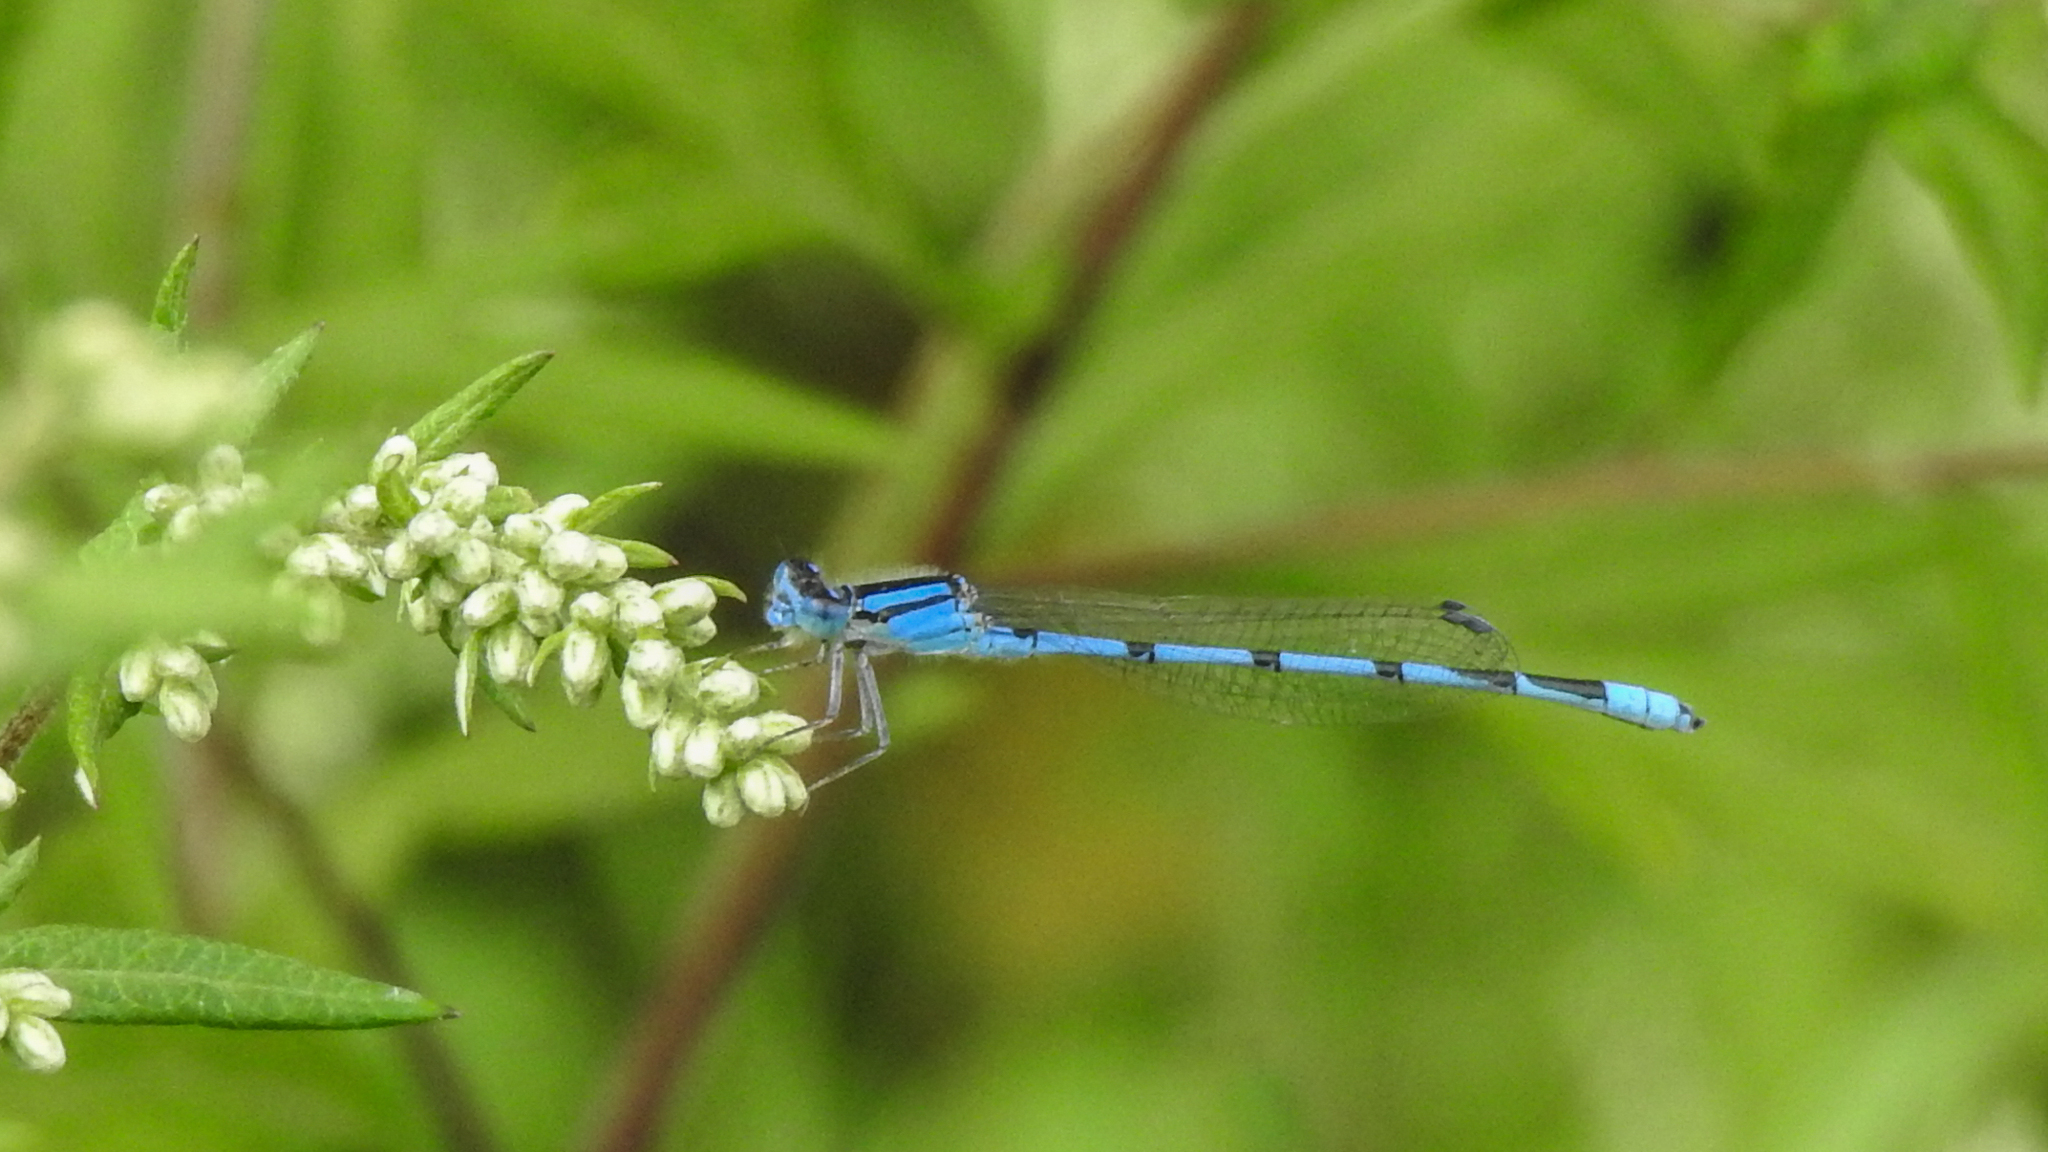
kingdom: Animalia
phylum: Arthropoda
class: Insecta
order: Odonata
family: Coenagrionidae
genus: Enallagma
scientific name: Enallagma civile
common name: Damselfly
